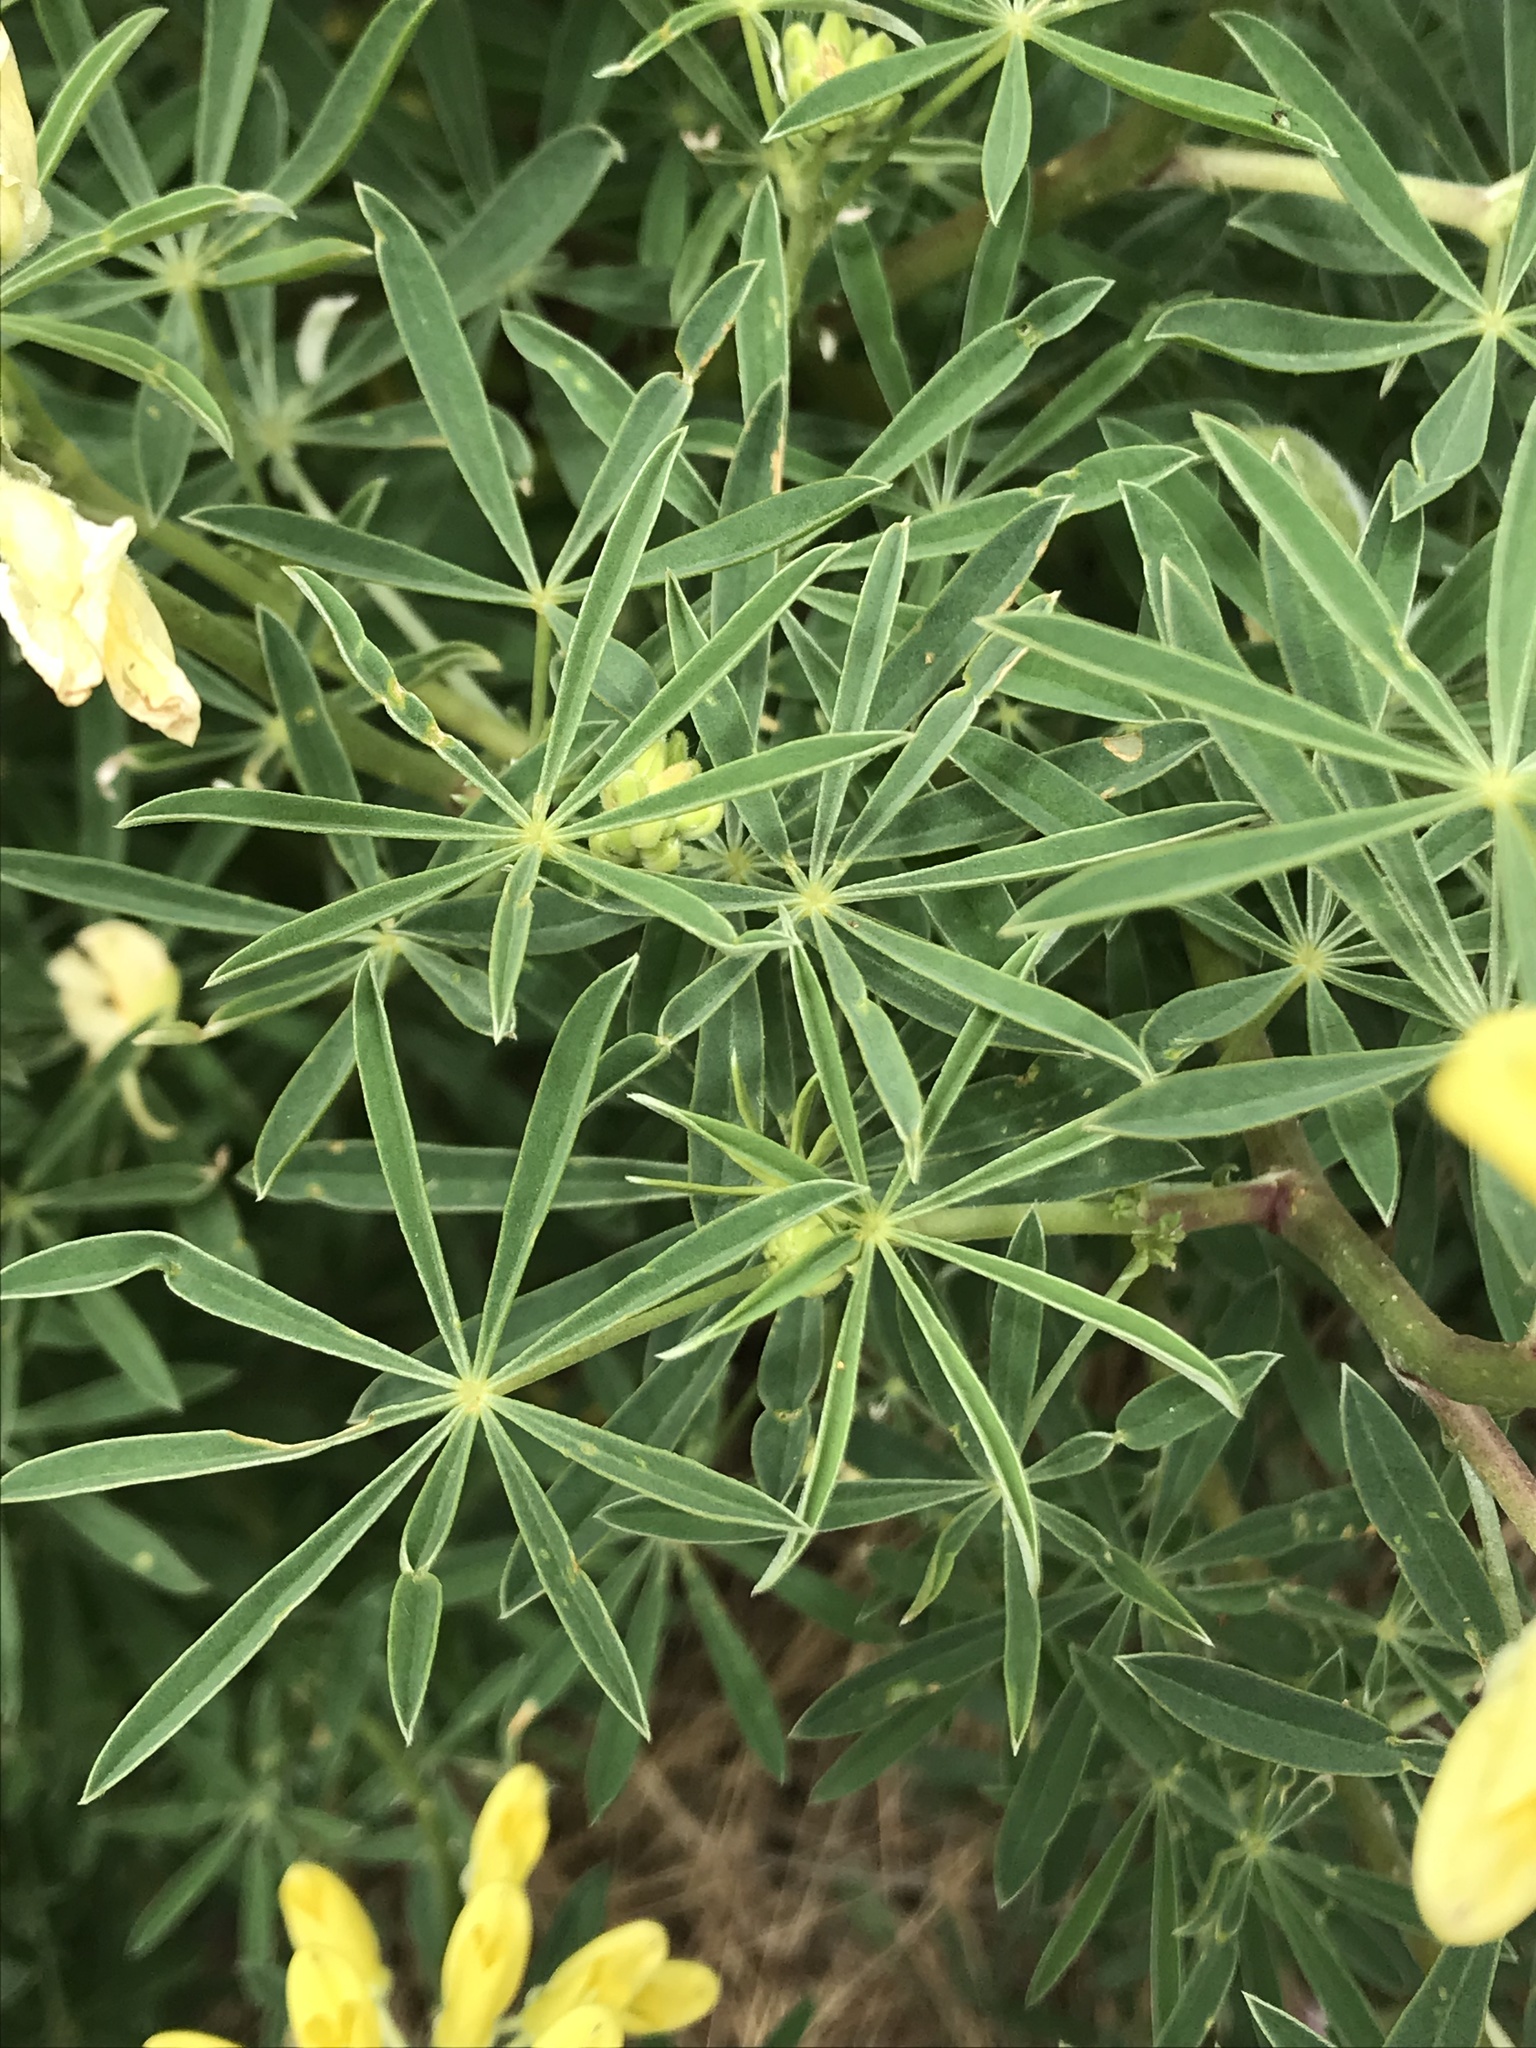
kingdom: Plantae
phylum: Tracheophyta
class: Magnoliopsida
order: Fabales
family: Fabaceae
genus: Lupinus
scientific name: Lupinus arboreus
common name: Yellow bush lupine
